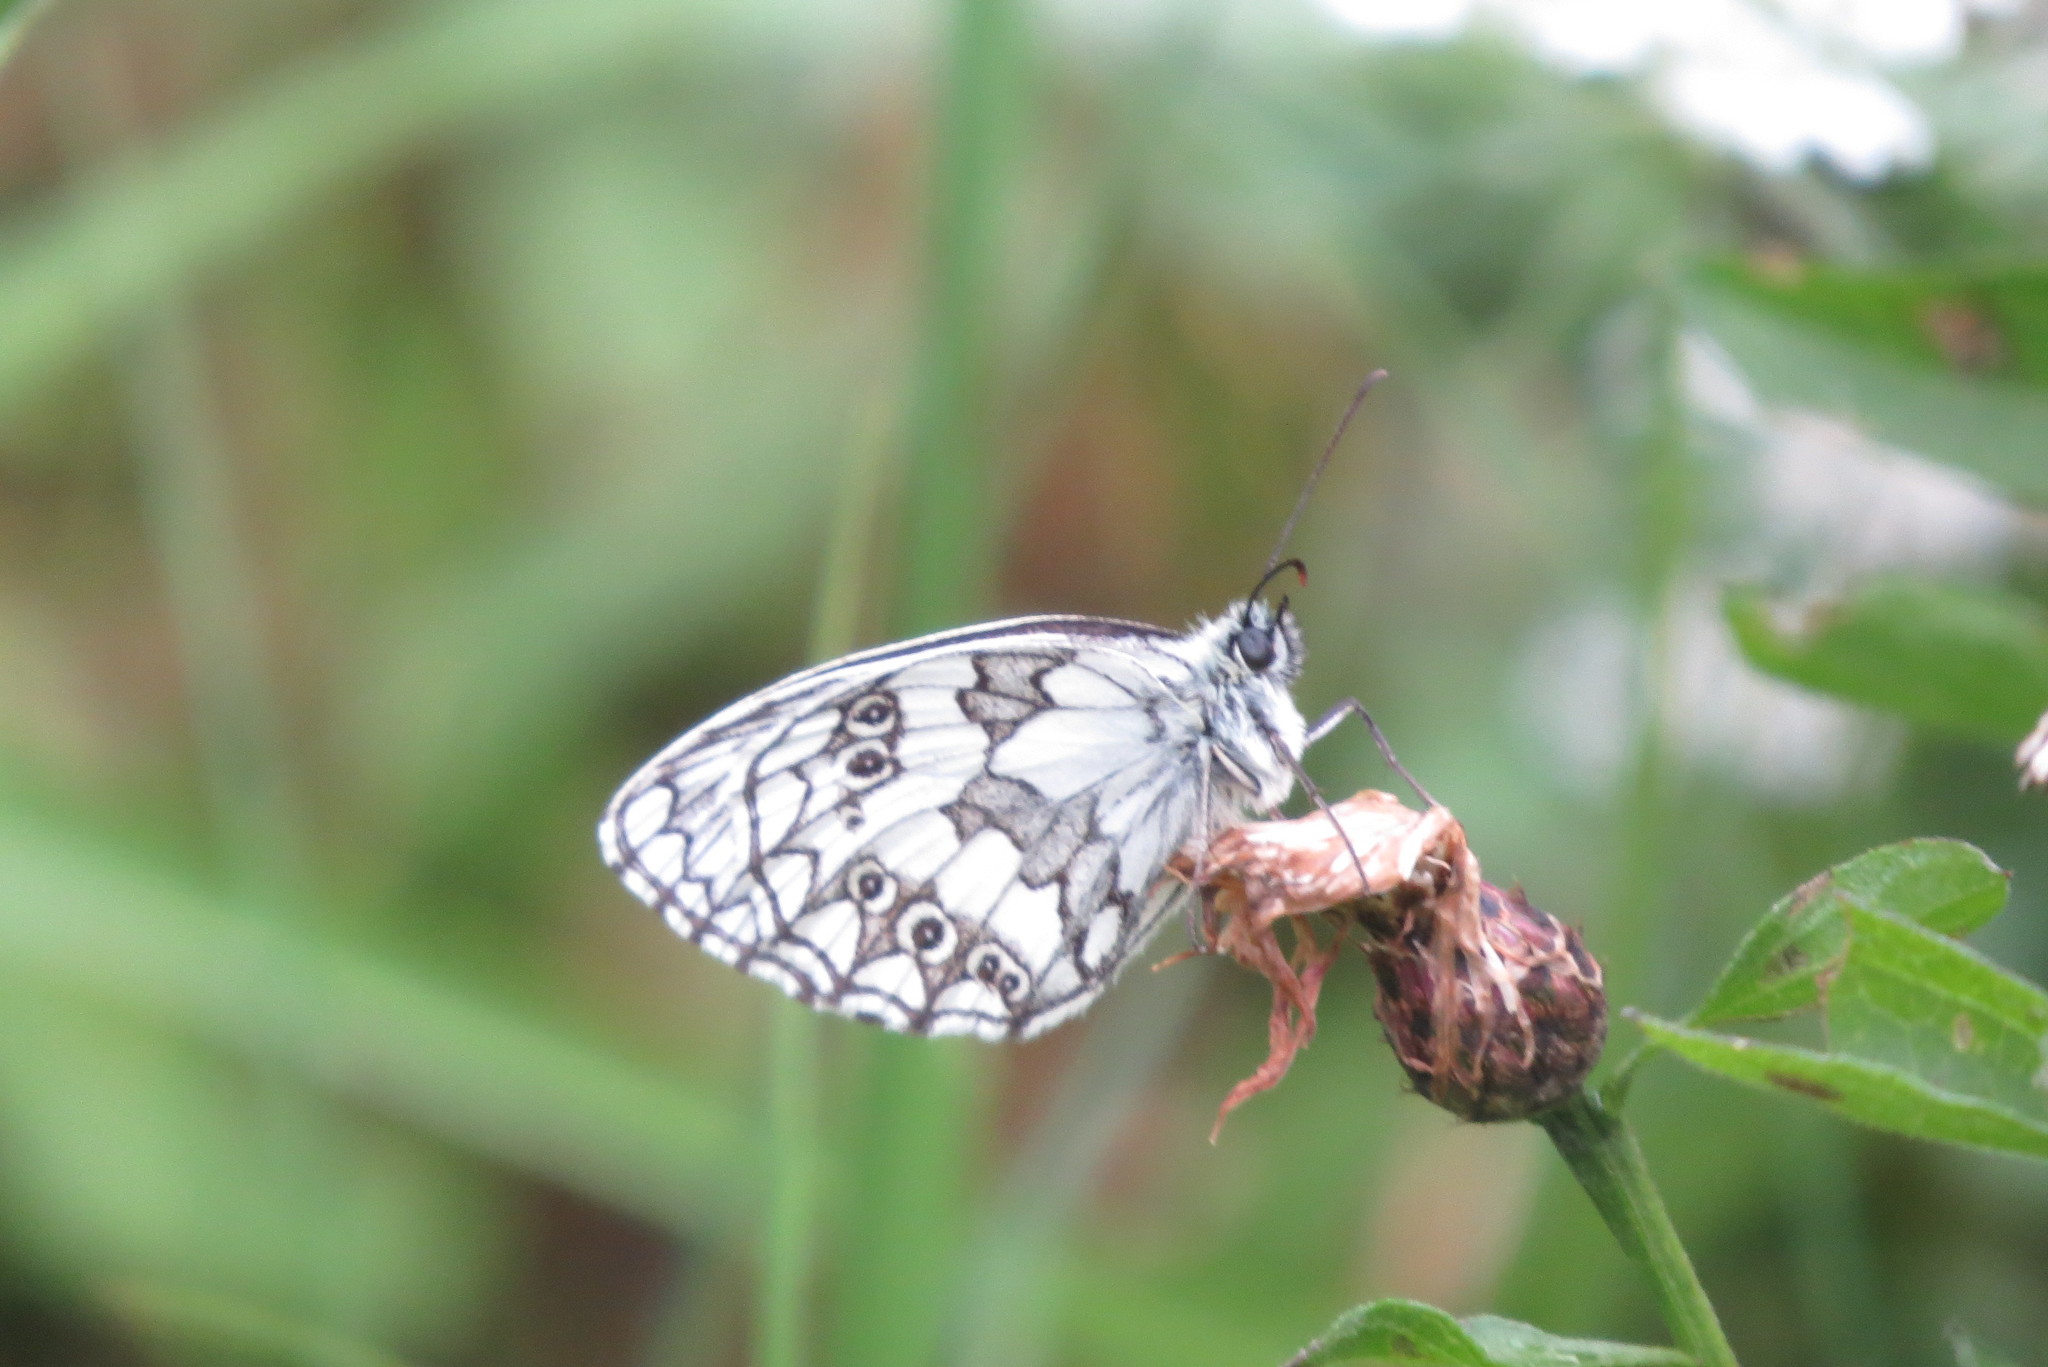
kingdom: Animalia
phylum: Arthropoda
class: Insecta
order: Lepidoptera
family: Nymphalidae
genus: Melanargia
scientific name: Melanargia galathea
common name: Marbled white
